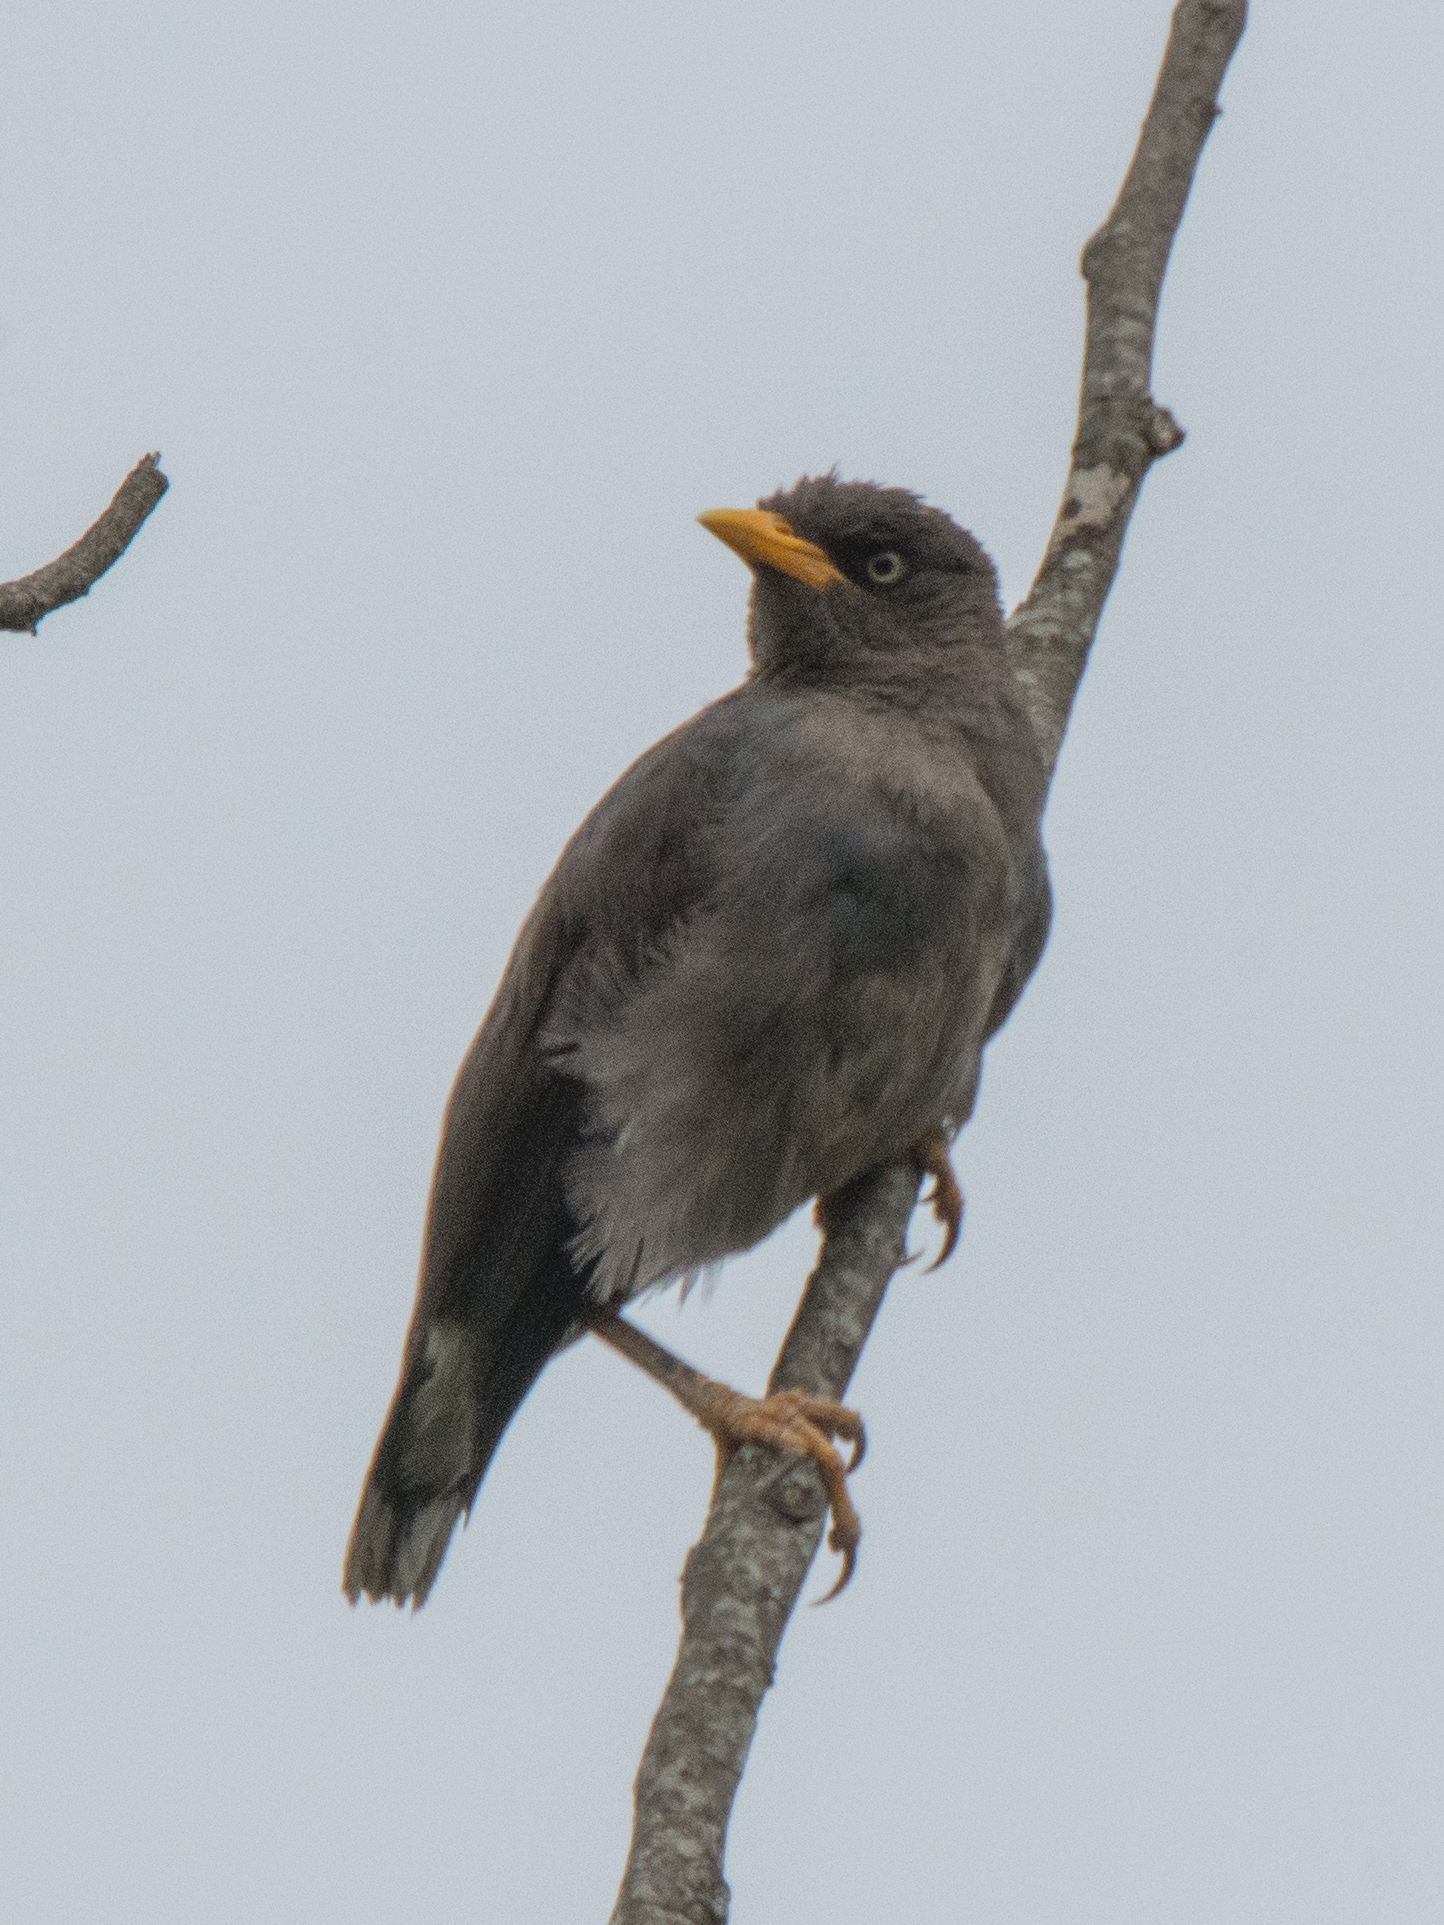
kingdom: Animalia
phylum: Chordata
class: Aves
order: Passeriformes
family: Sturnidae
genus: Acridotheres
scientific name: Acridotheres javanicus
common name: Javan myna
